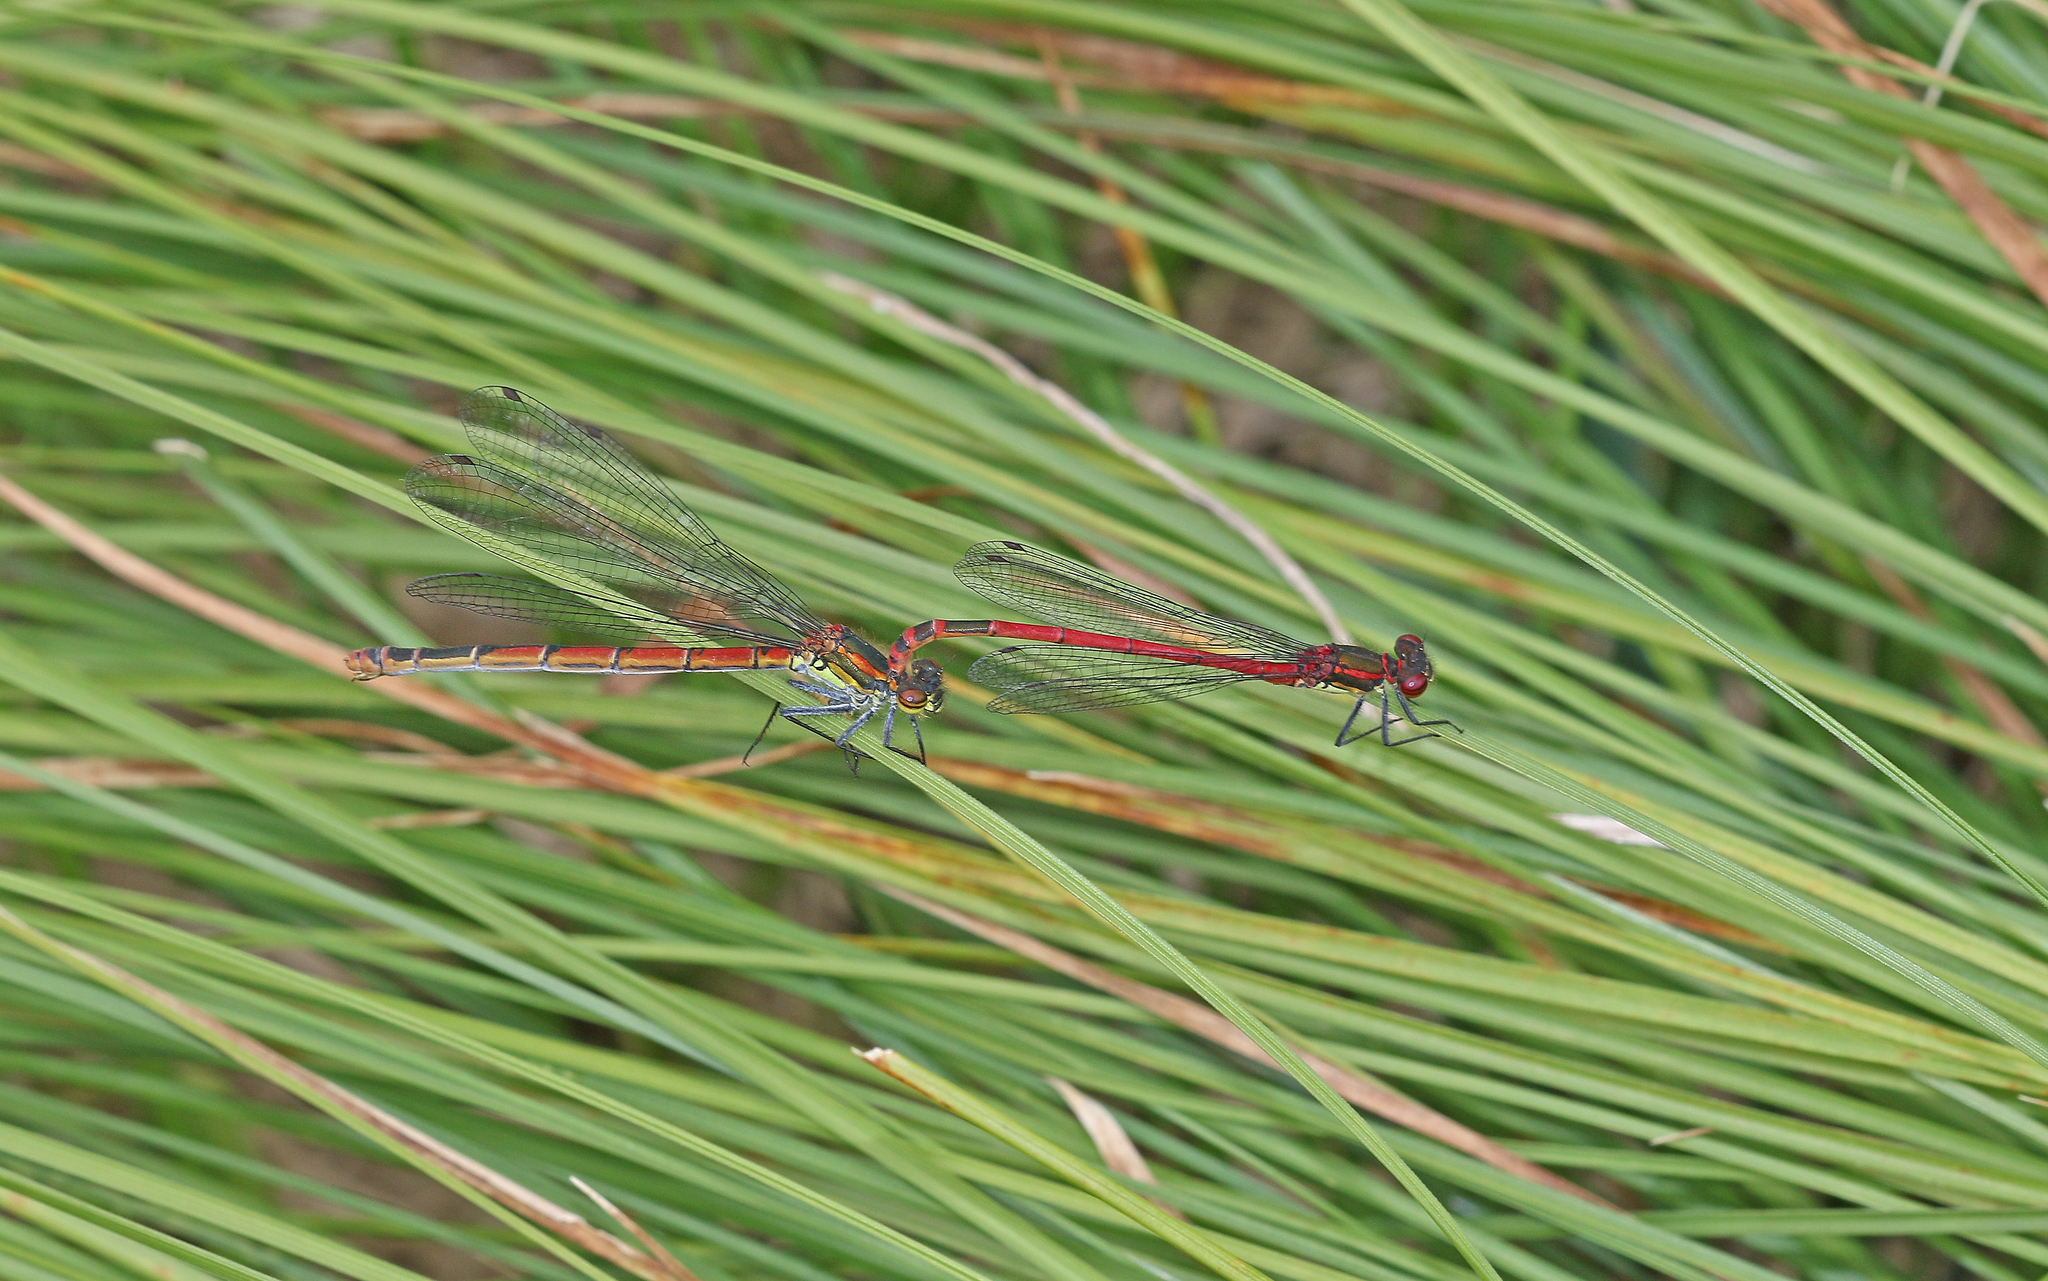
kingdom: Animalia
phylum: Arthropoda
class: Insecta
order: Odonata
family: Coenagrionidae
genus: Pyrrhosoma
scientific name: Pyrrhosoma nymphula
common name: Large red damsel
